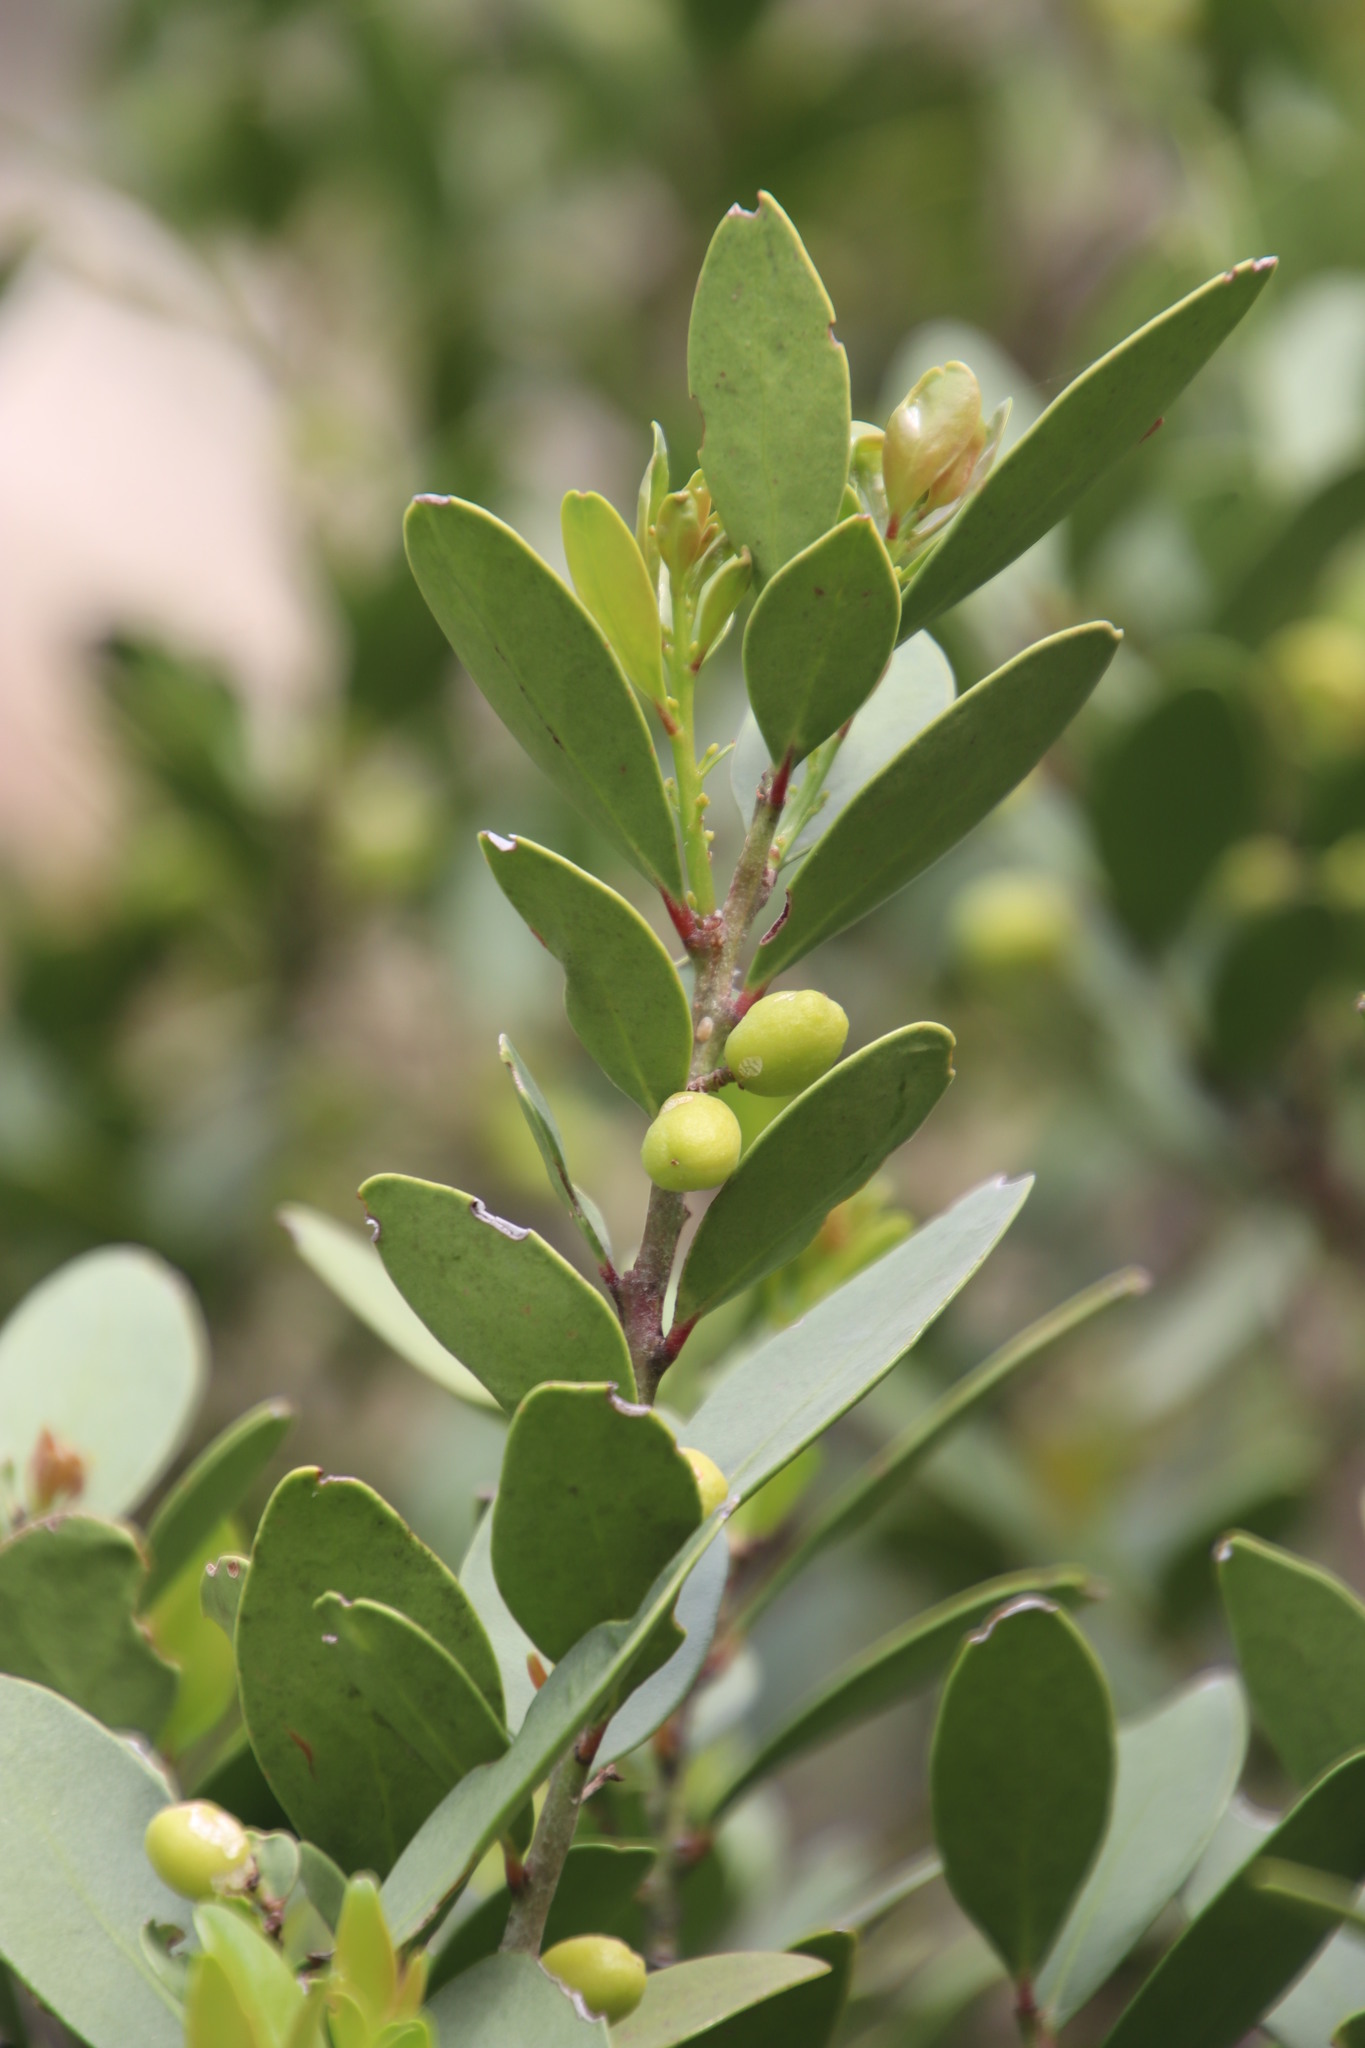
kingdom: Plantae
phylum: Tracheophyta
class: Magnoliopsida
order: Celastrales
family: Celastraceae
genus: Gymnosporia
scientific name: Gymnosporia laurina
